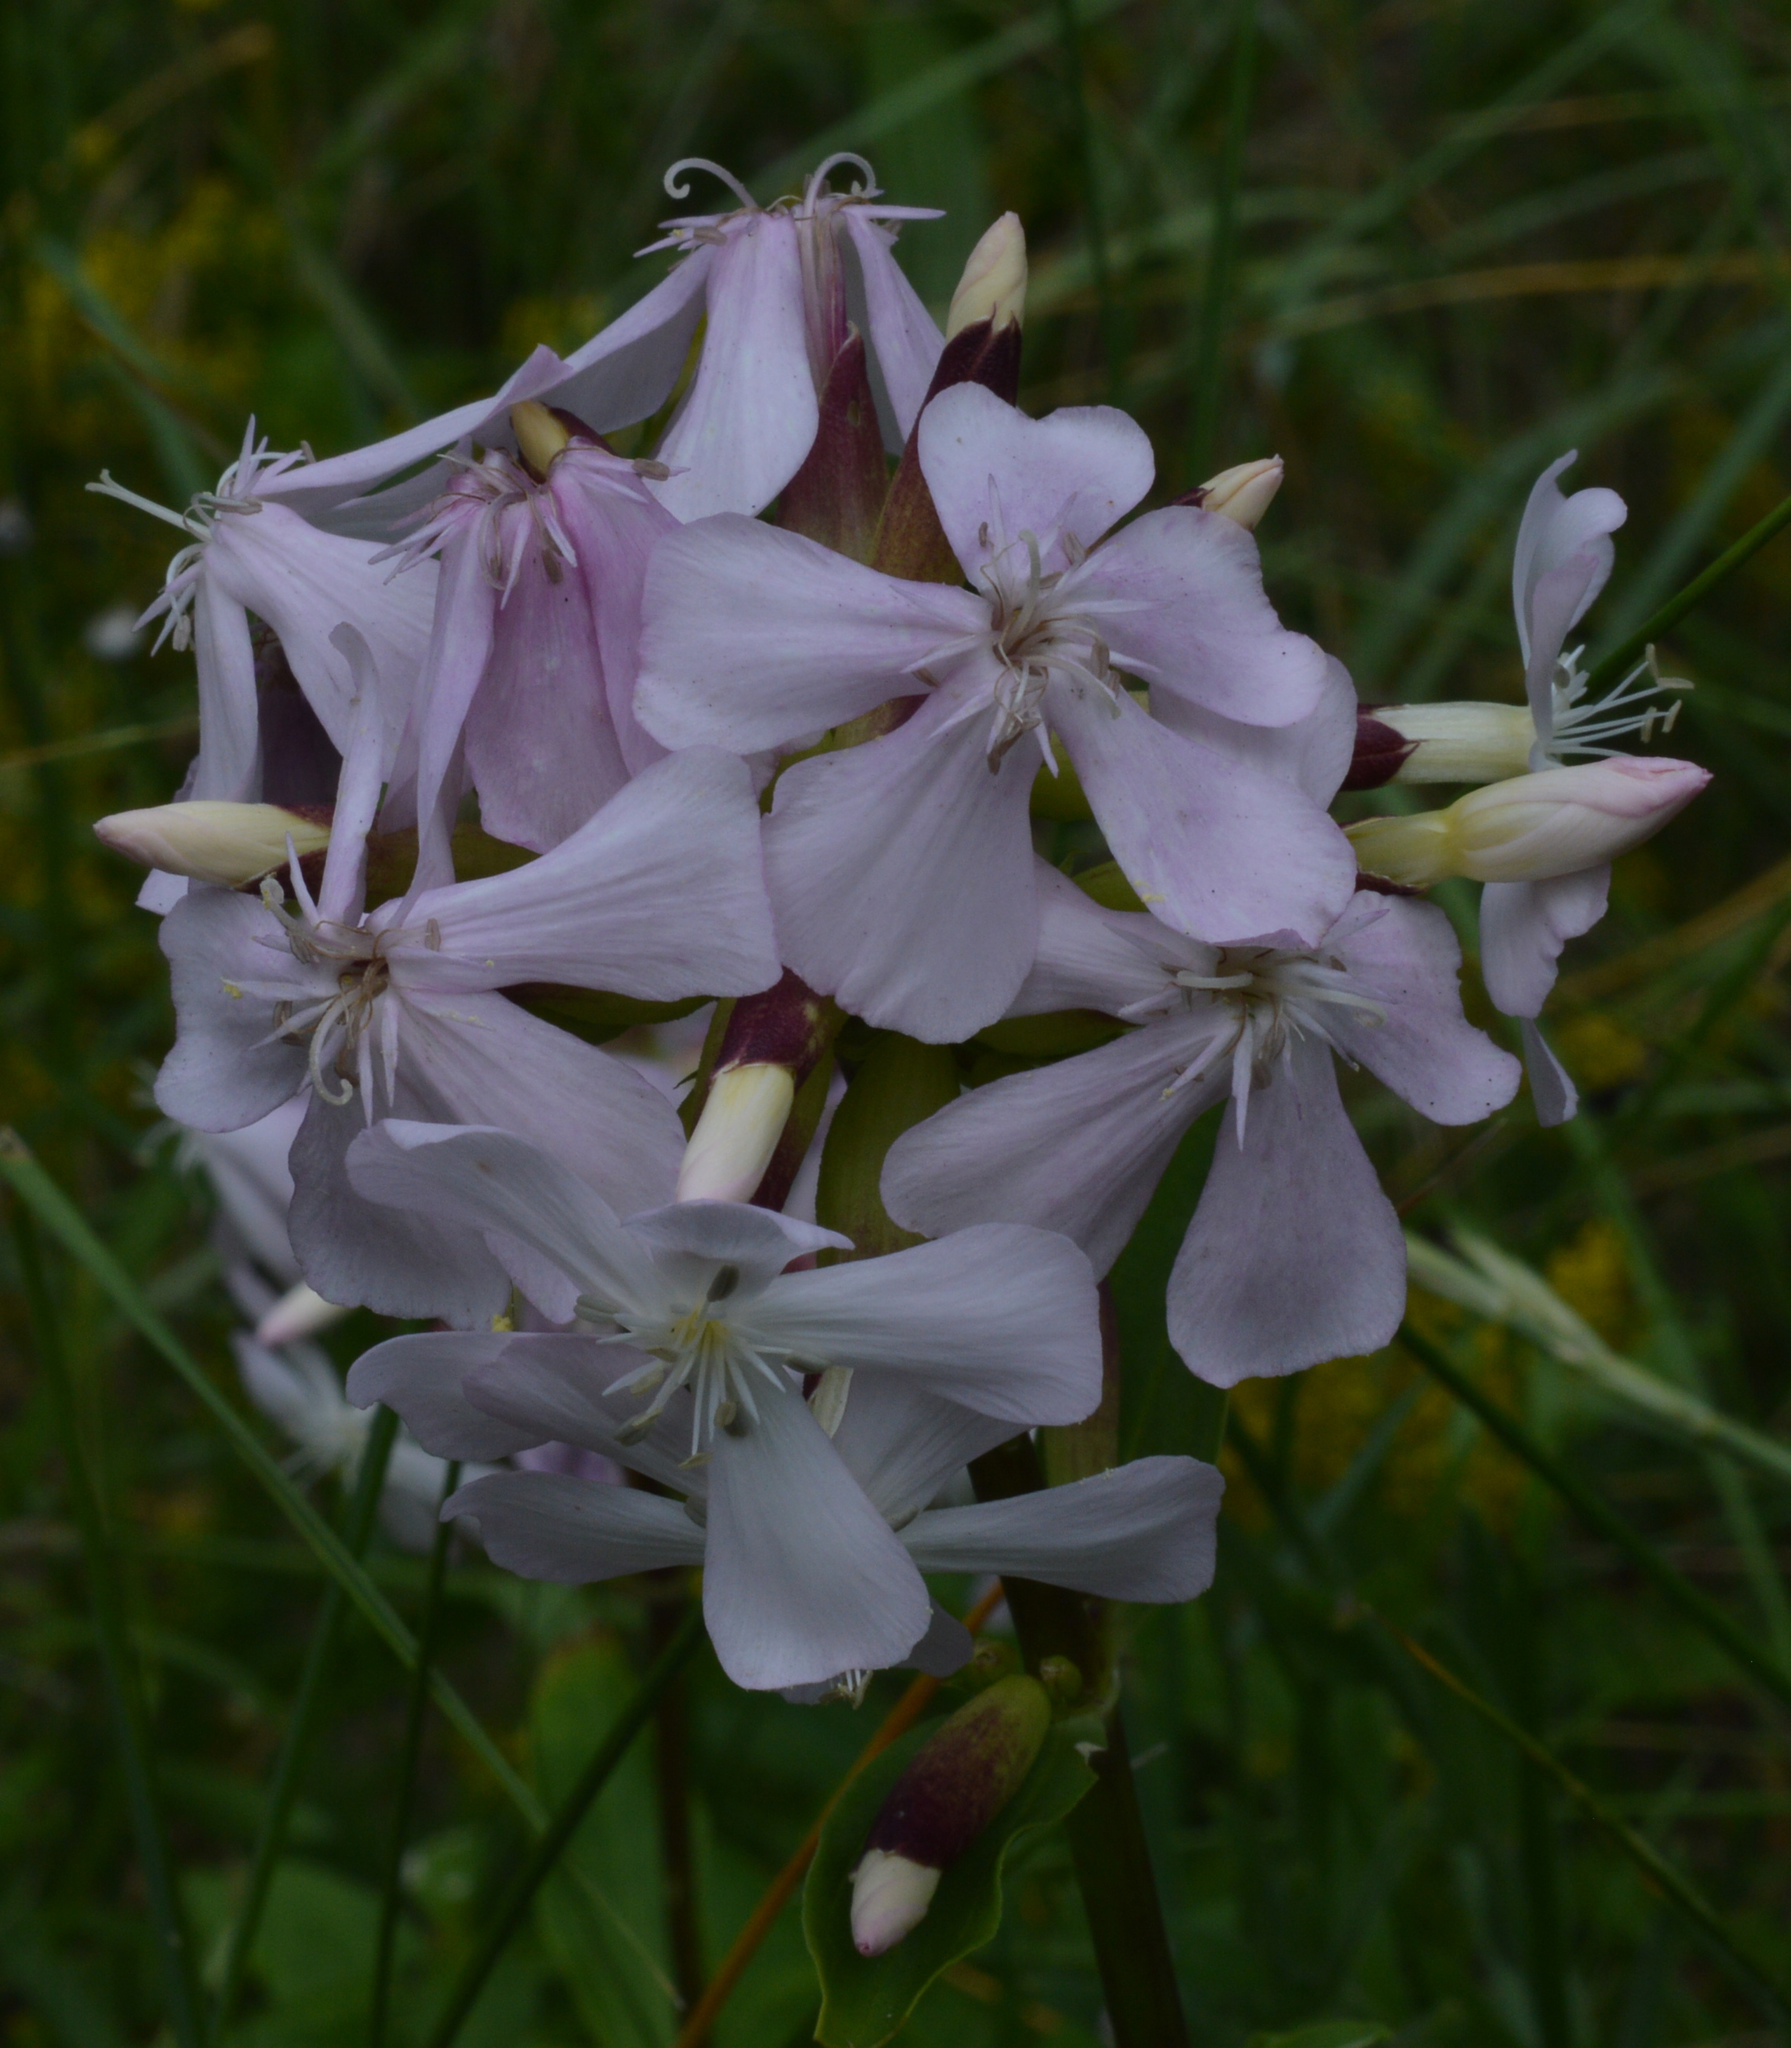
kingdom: Plantae
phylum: Tracheophyta
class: Magnoliopsida
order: Caryophyllales
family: Caryophyllaceae
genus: Saponaria
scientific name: Saponaria officinalis
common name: Soapwort
